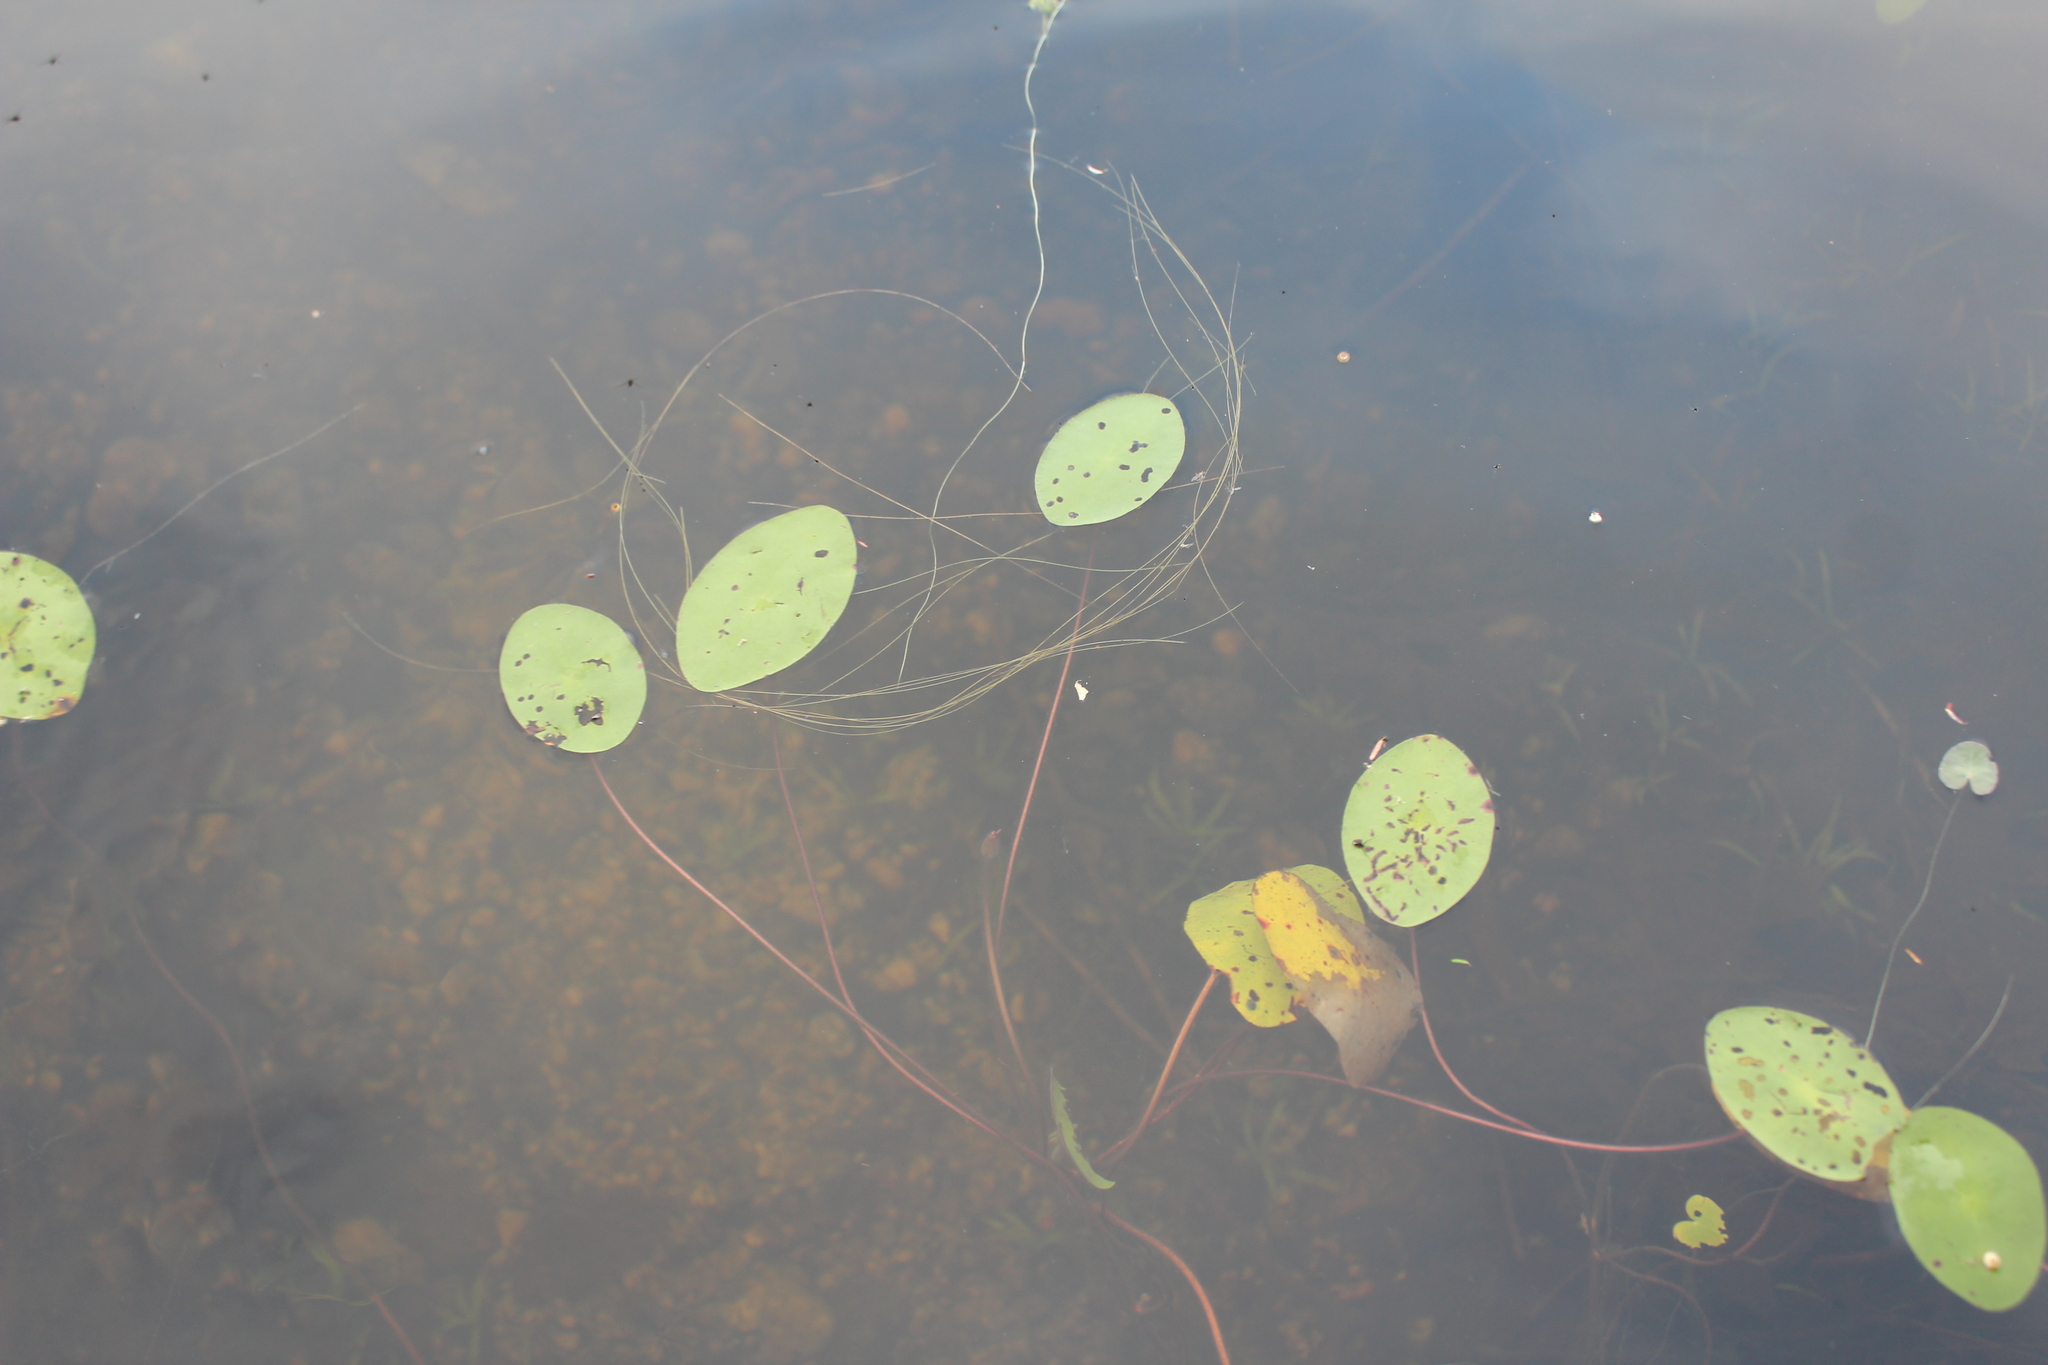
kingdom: Plantae
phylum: Tracheophyta
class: Magnoliopsida
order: Nymphaeales
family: Cabombaceae
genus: Brasenia
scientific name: Brasenia schreberi
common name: Water-shield
